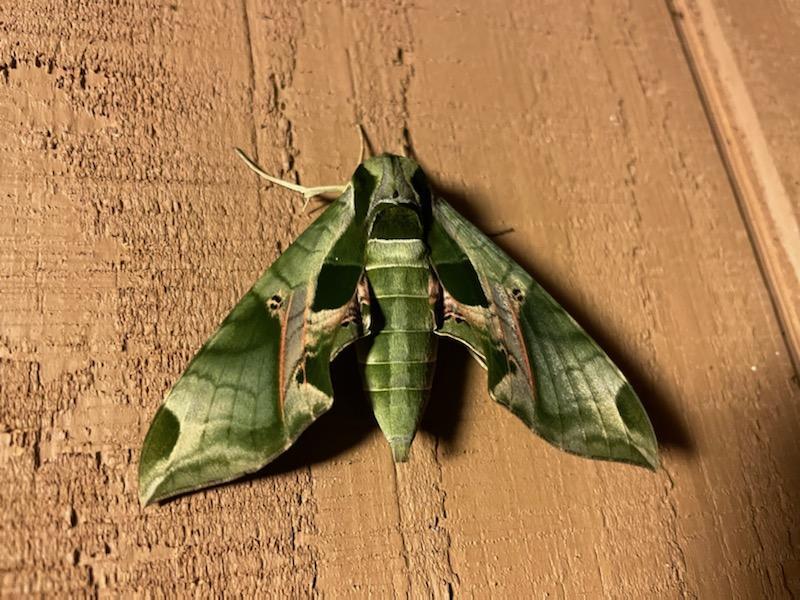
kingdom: Animalia
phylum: Arthropoda
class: Insecta
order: Lepidoptera
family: Sphingidae
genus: Eumorpha
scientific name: Eumorpha pandorus
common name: Pandora sphinx
